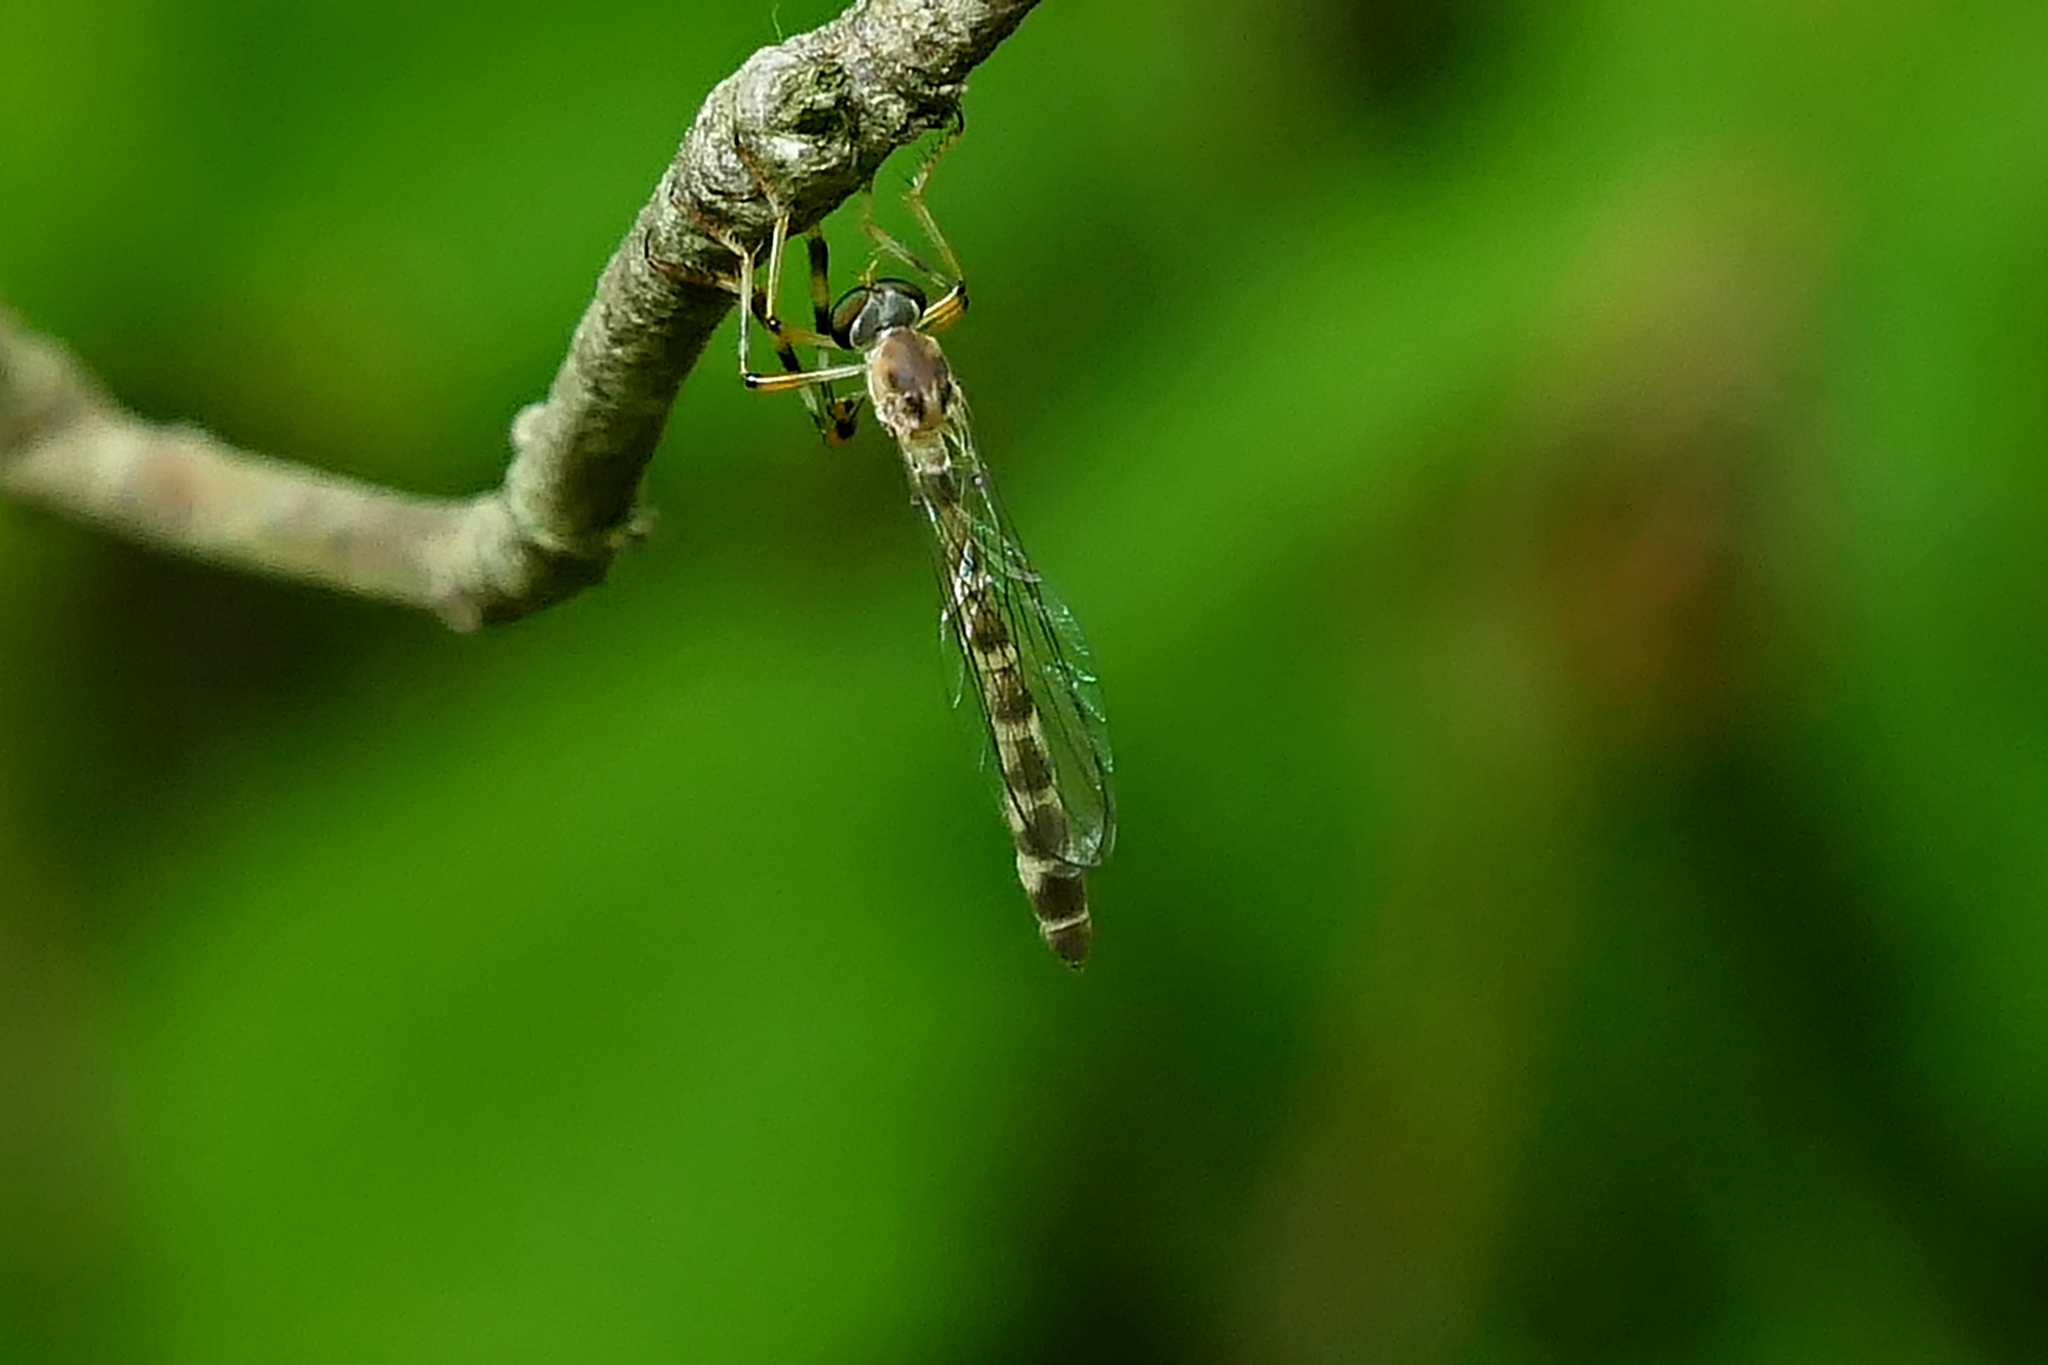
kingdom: Animalia
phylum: Arthropoda
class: Insecta
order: Diptera
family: Asilidae
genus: Psilonyx
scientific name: Psilonyx annulatus
